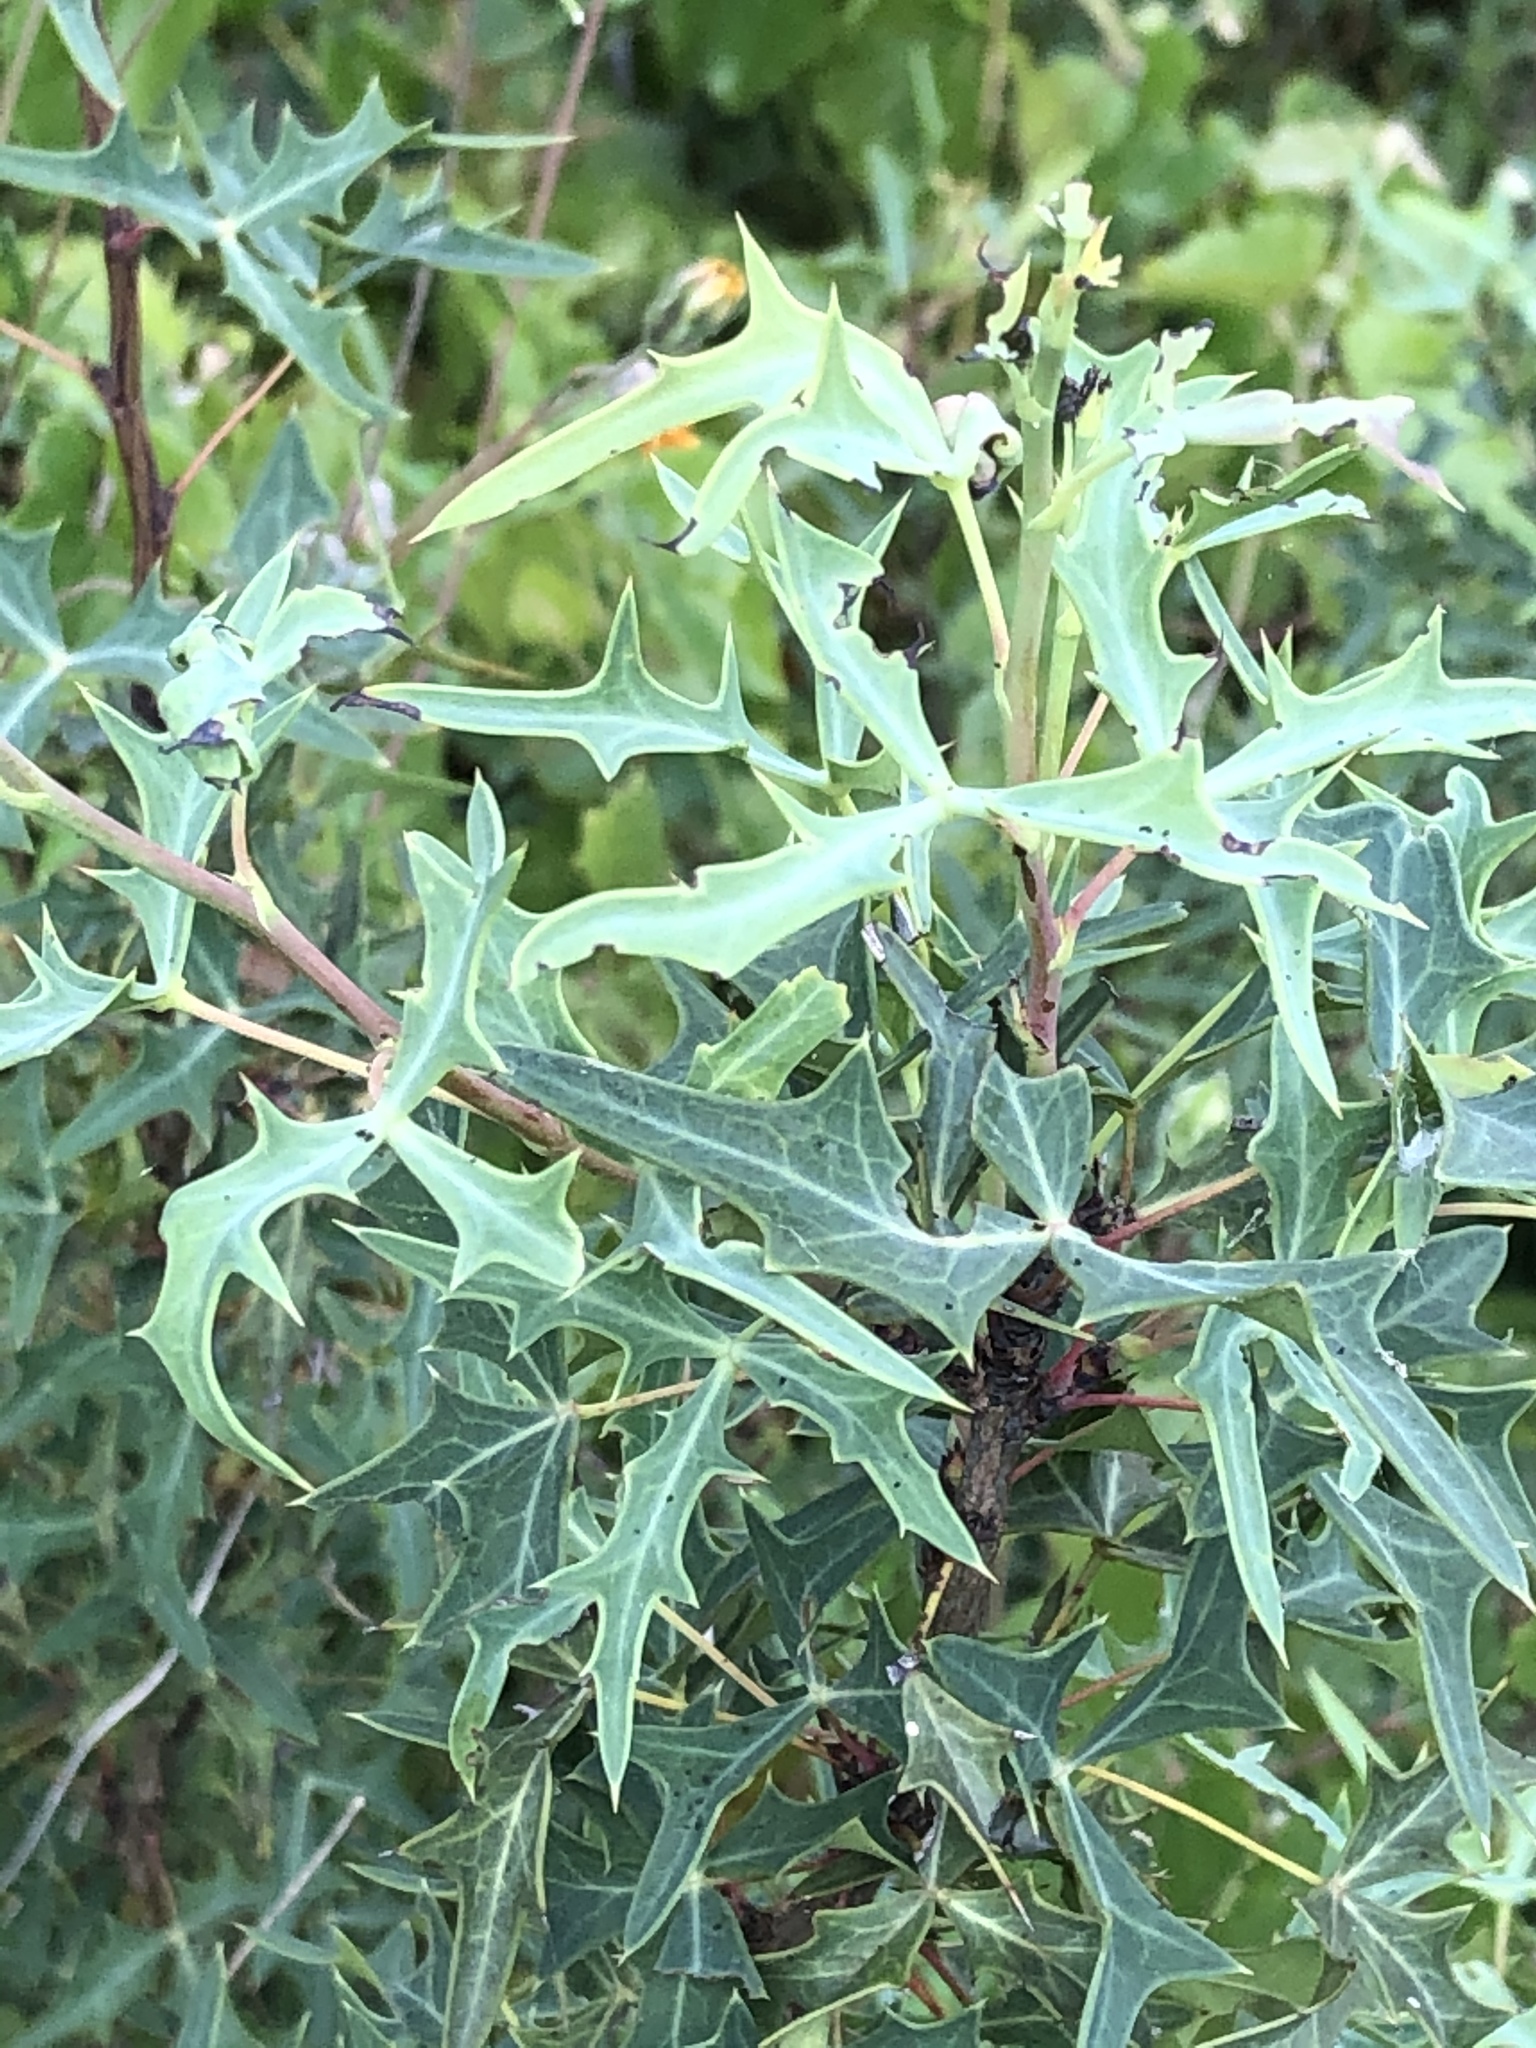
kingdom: Plantae
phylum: Tracheophyta
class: Magnoliopsida
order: Ranunculales
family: Berberidaceae
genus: Alloberberis
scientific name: Alloberberis trifoliolata
